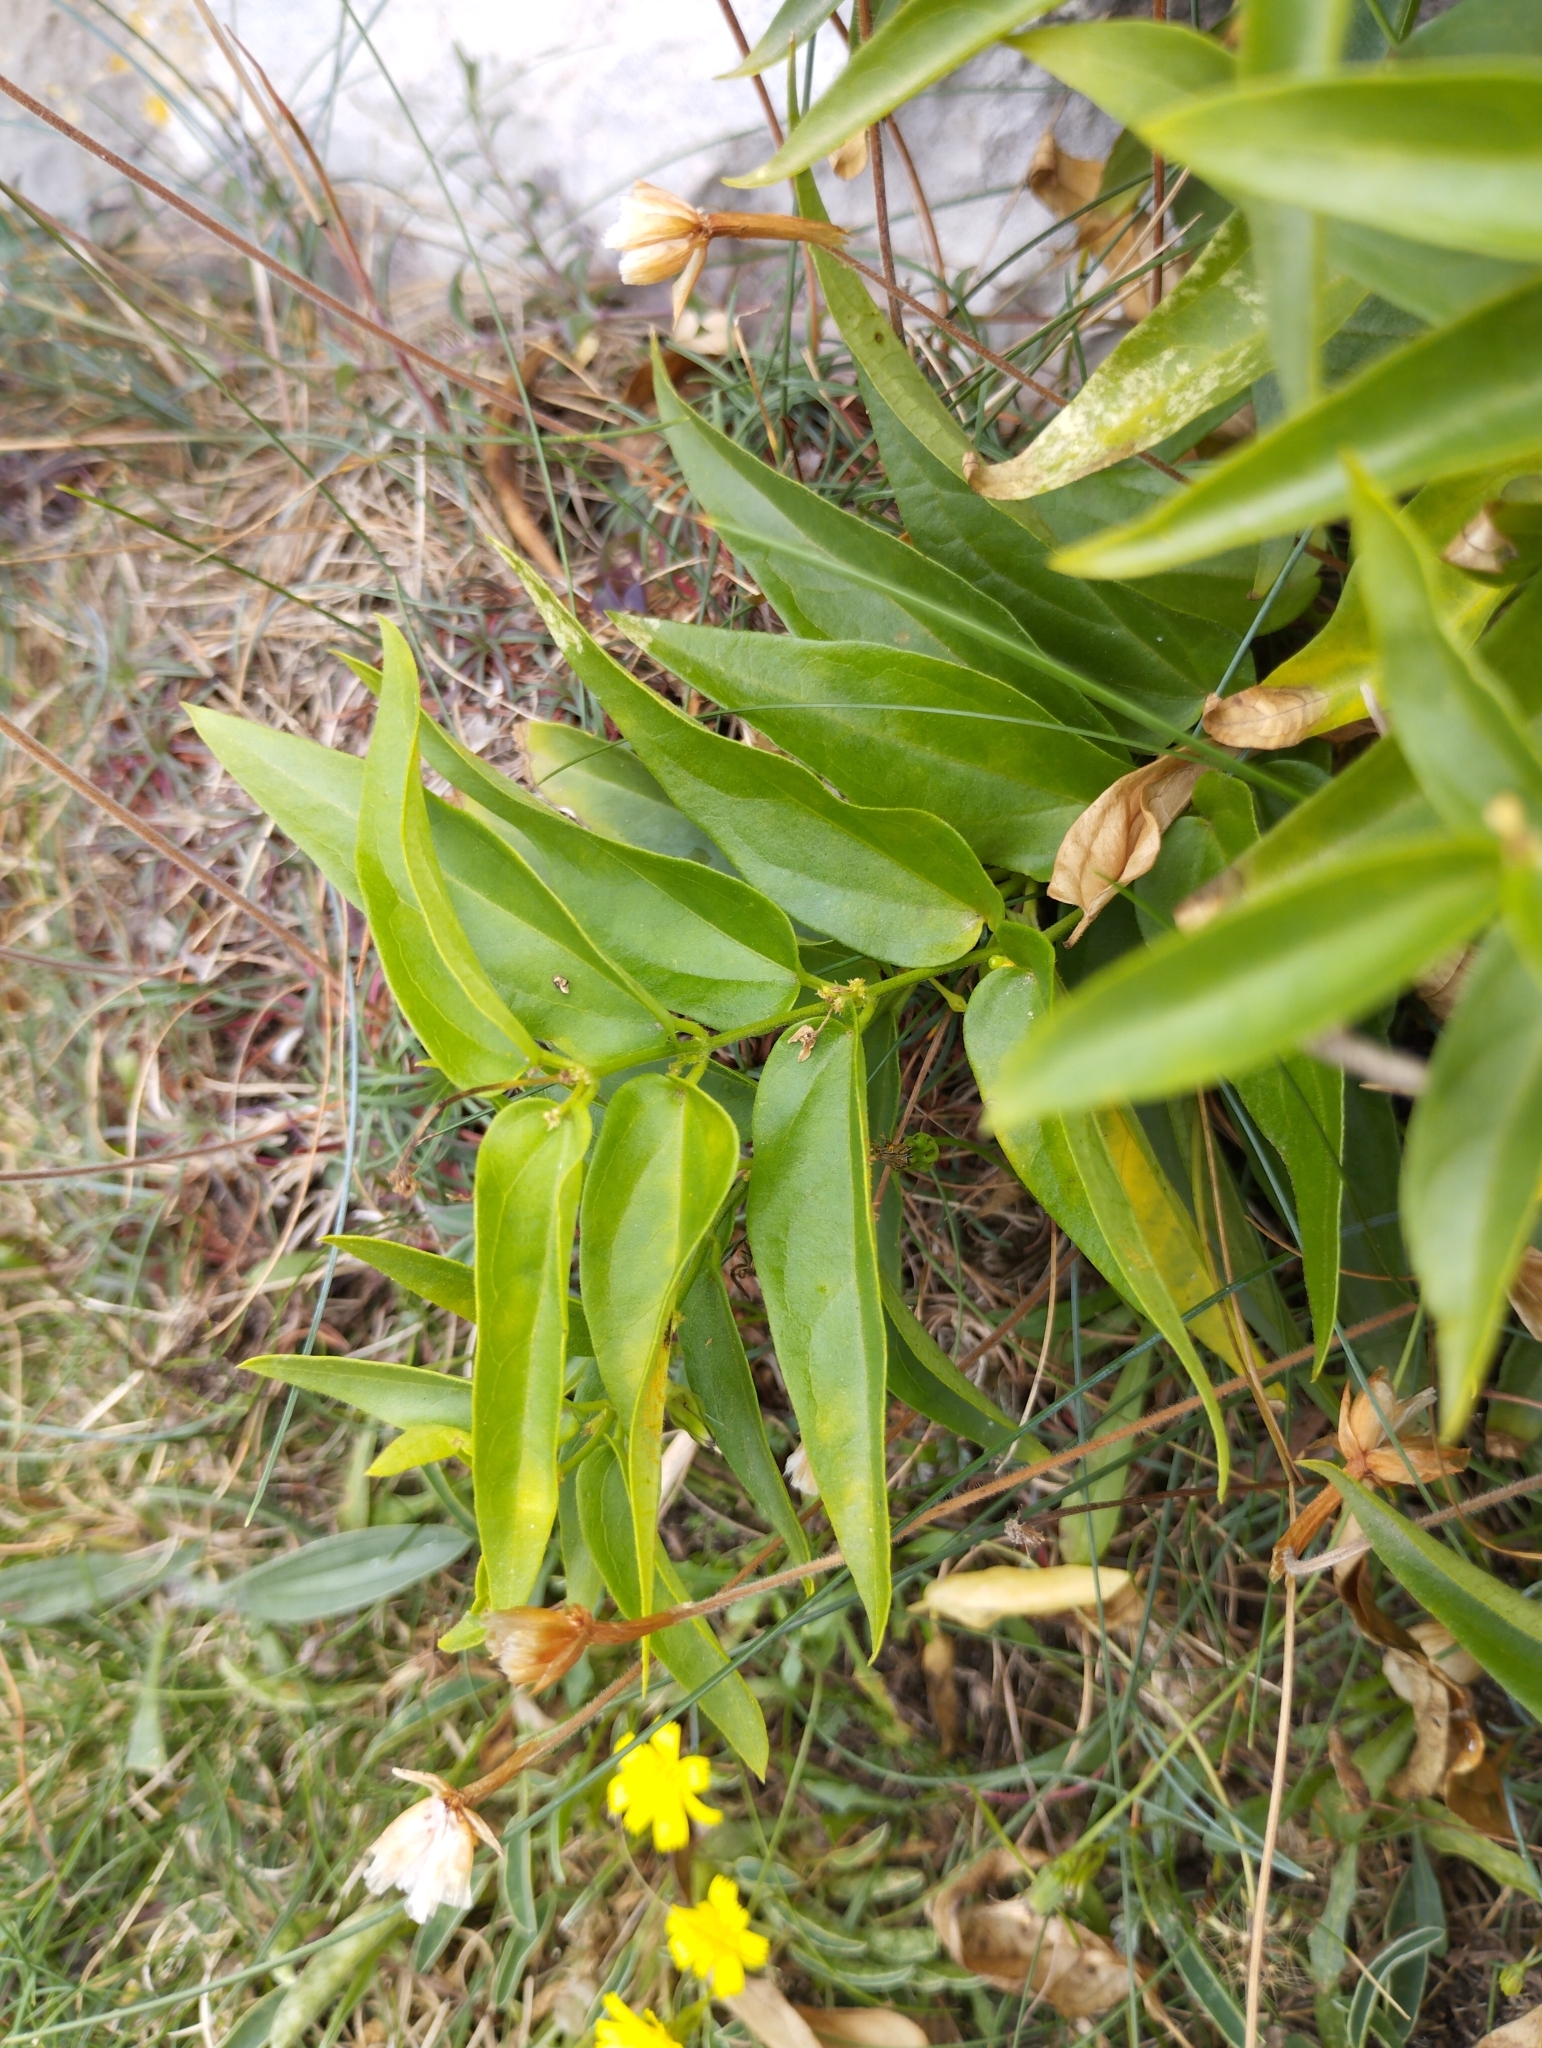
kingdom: Plantae
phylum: Tracheophyta
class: Magnoliopsida
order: Gentianales
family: Apocynaceae
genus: Vincetoxicum
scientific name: Vincetoxicum hirundinaria
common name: White swallowwort
